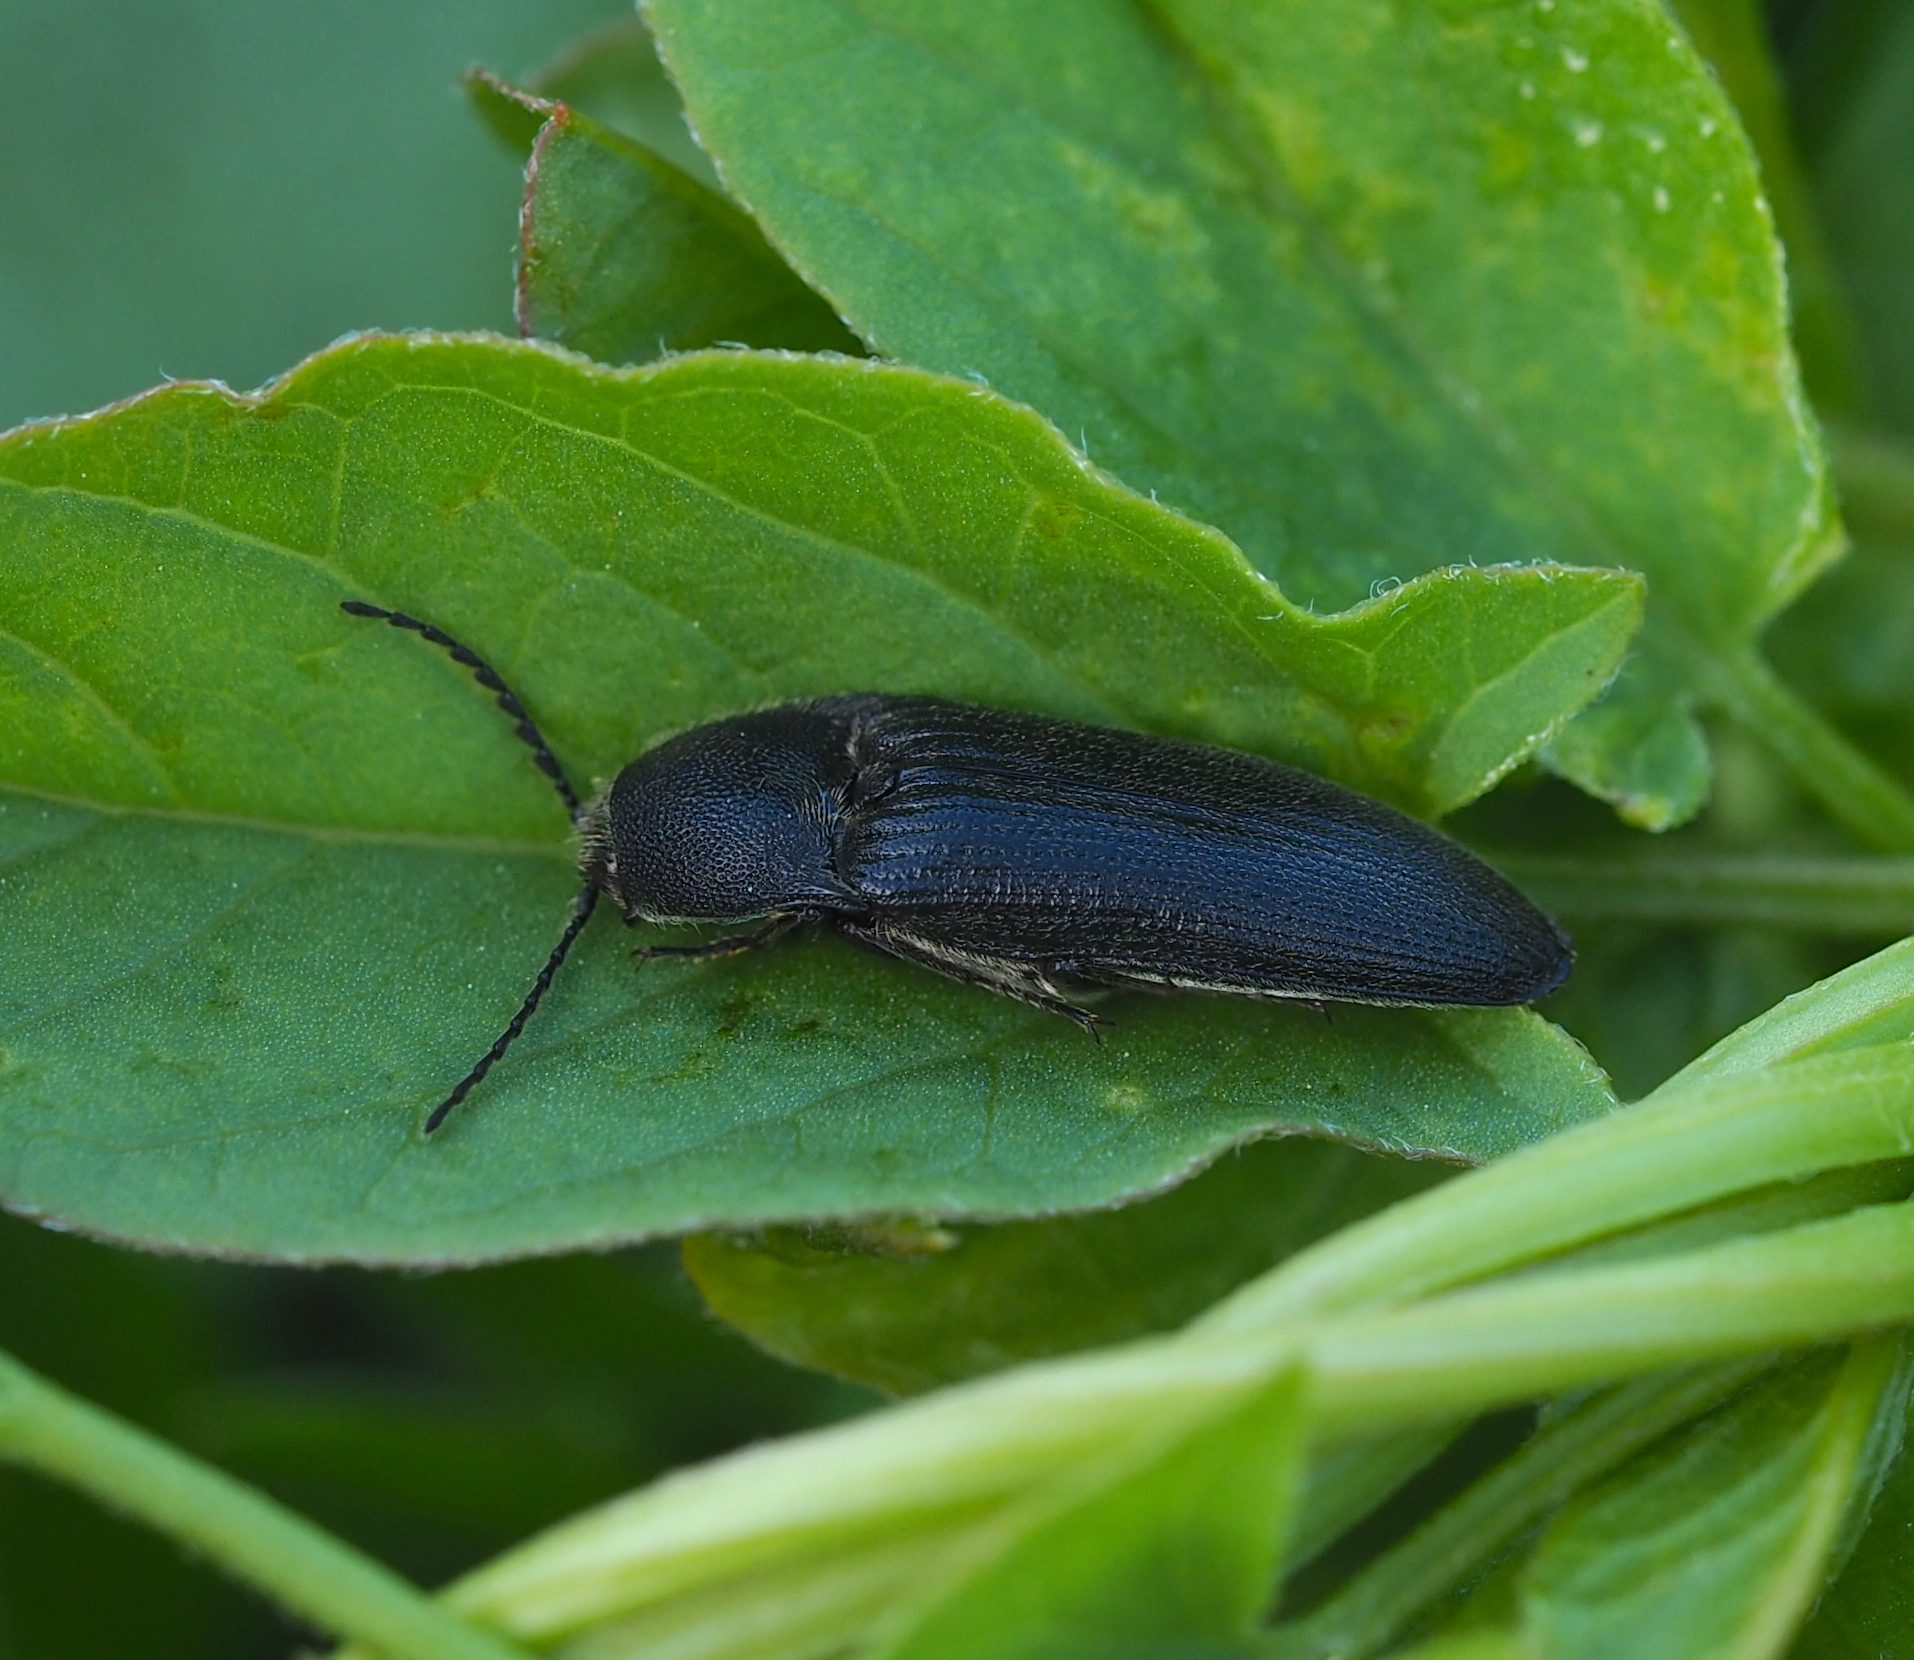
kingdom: Animalia
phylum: Arthropoda
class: Insecta
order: Coleoptera
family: Elateridae
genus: Melanotus
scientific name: Melanotus punctolineatus
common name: Sandwich click beetle
